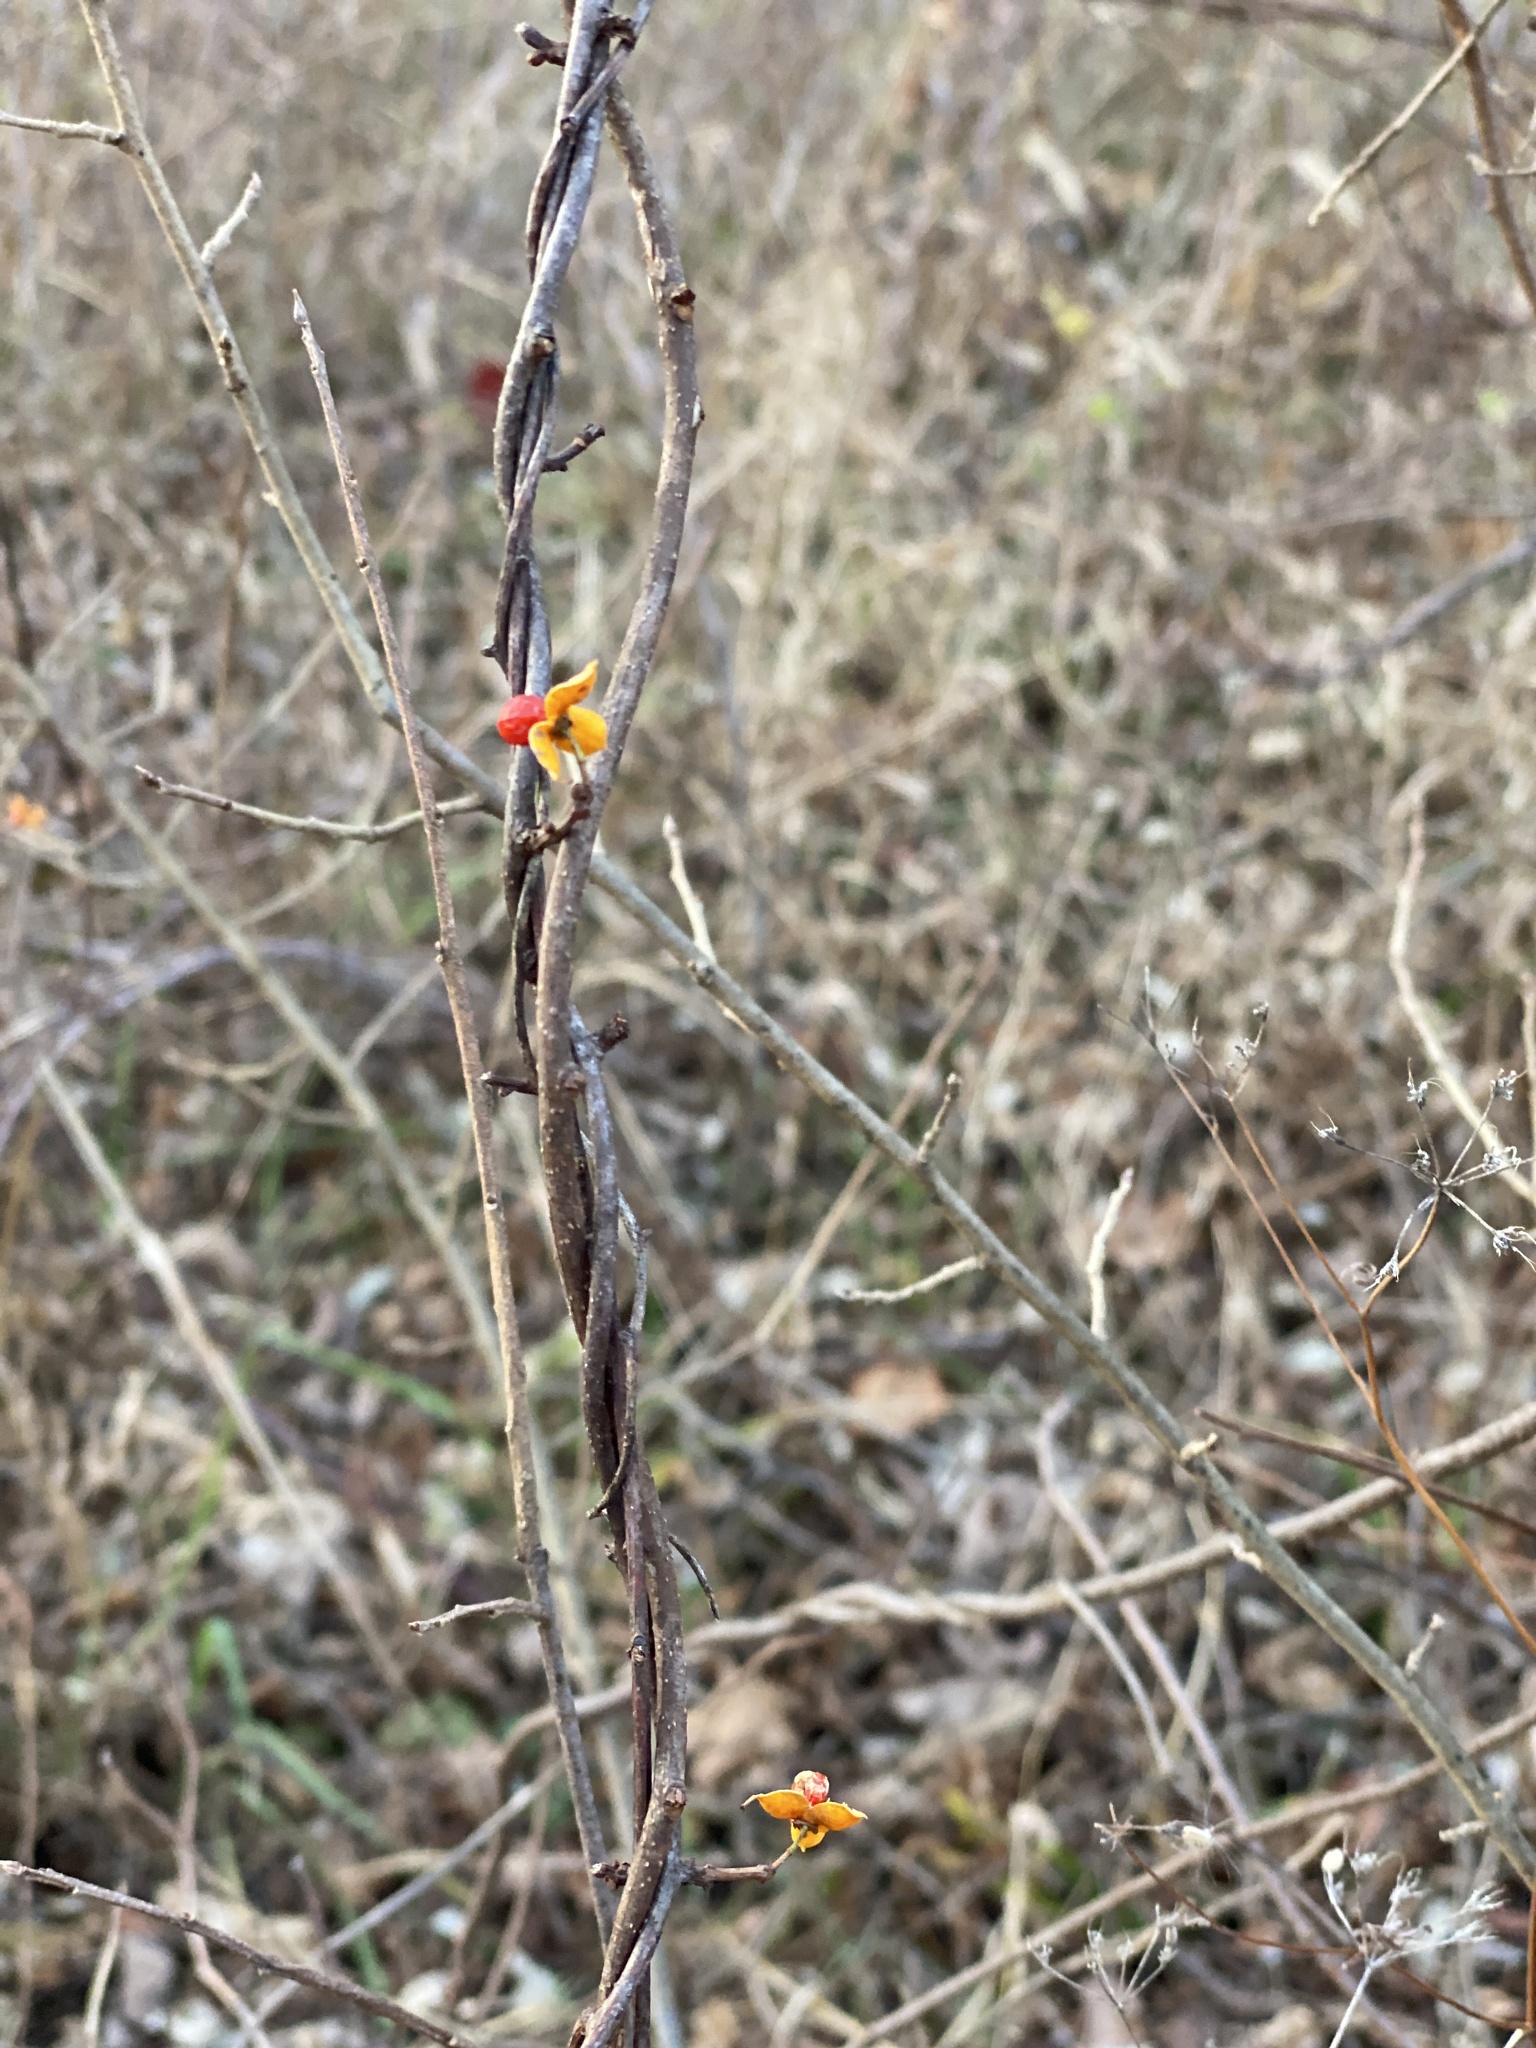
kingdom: Plantae
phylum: Tracheophyta
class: Magnoliopsida
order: Celastrales
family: Celastraceae
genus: Celastrus
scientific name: Celastrus orbiculatus
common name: Oriental bittersweet
